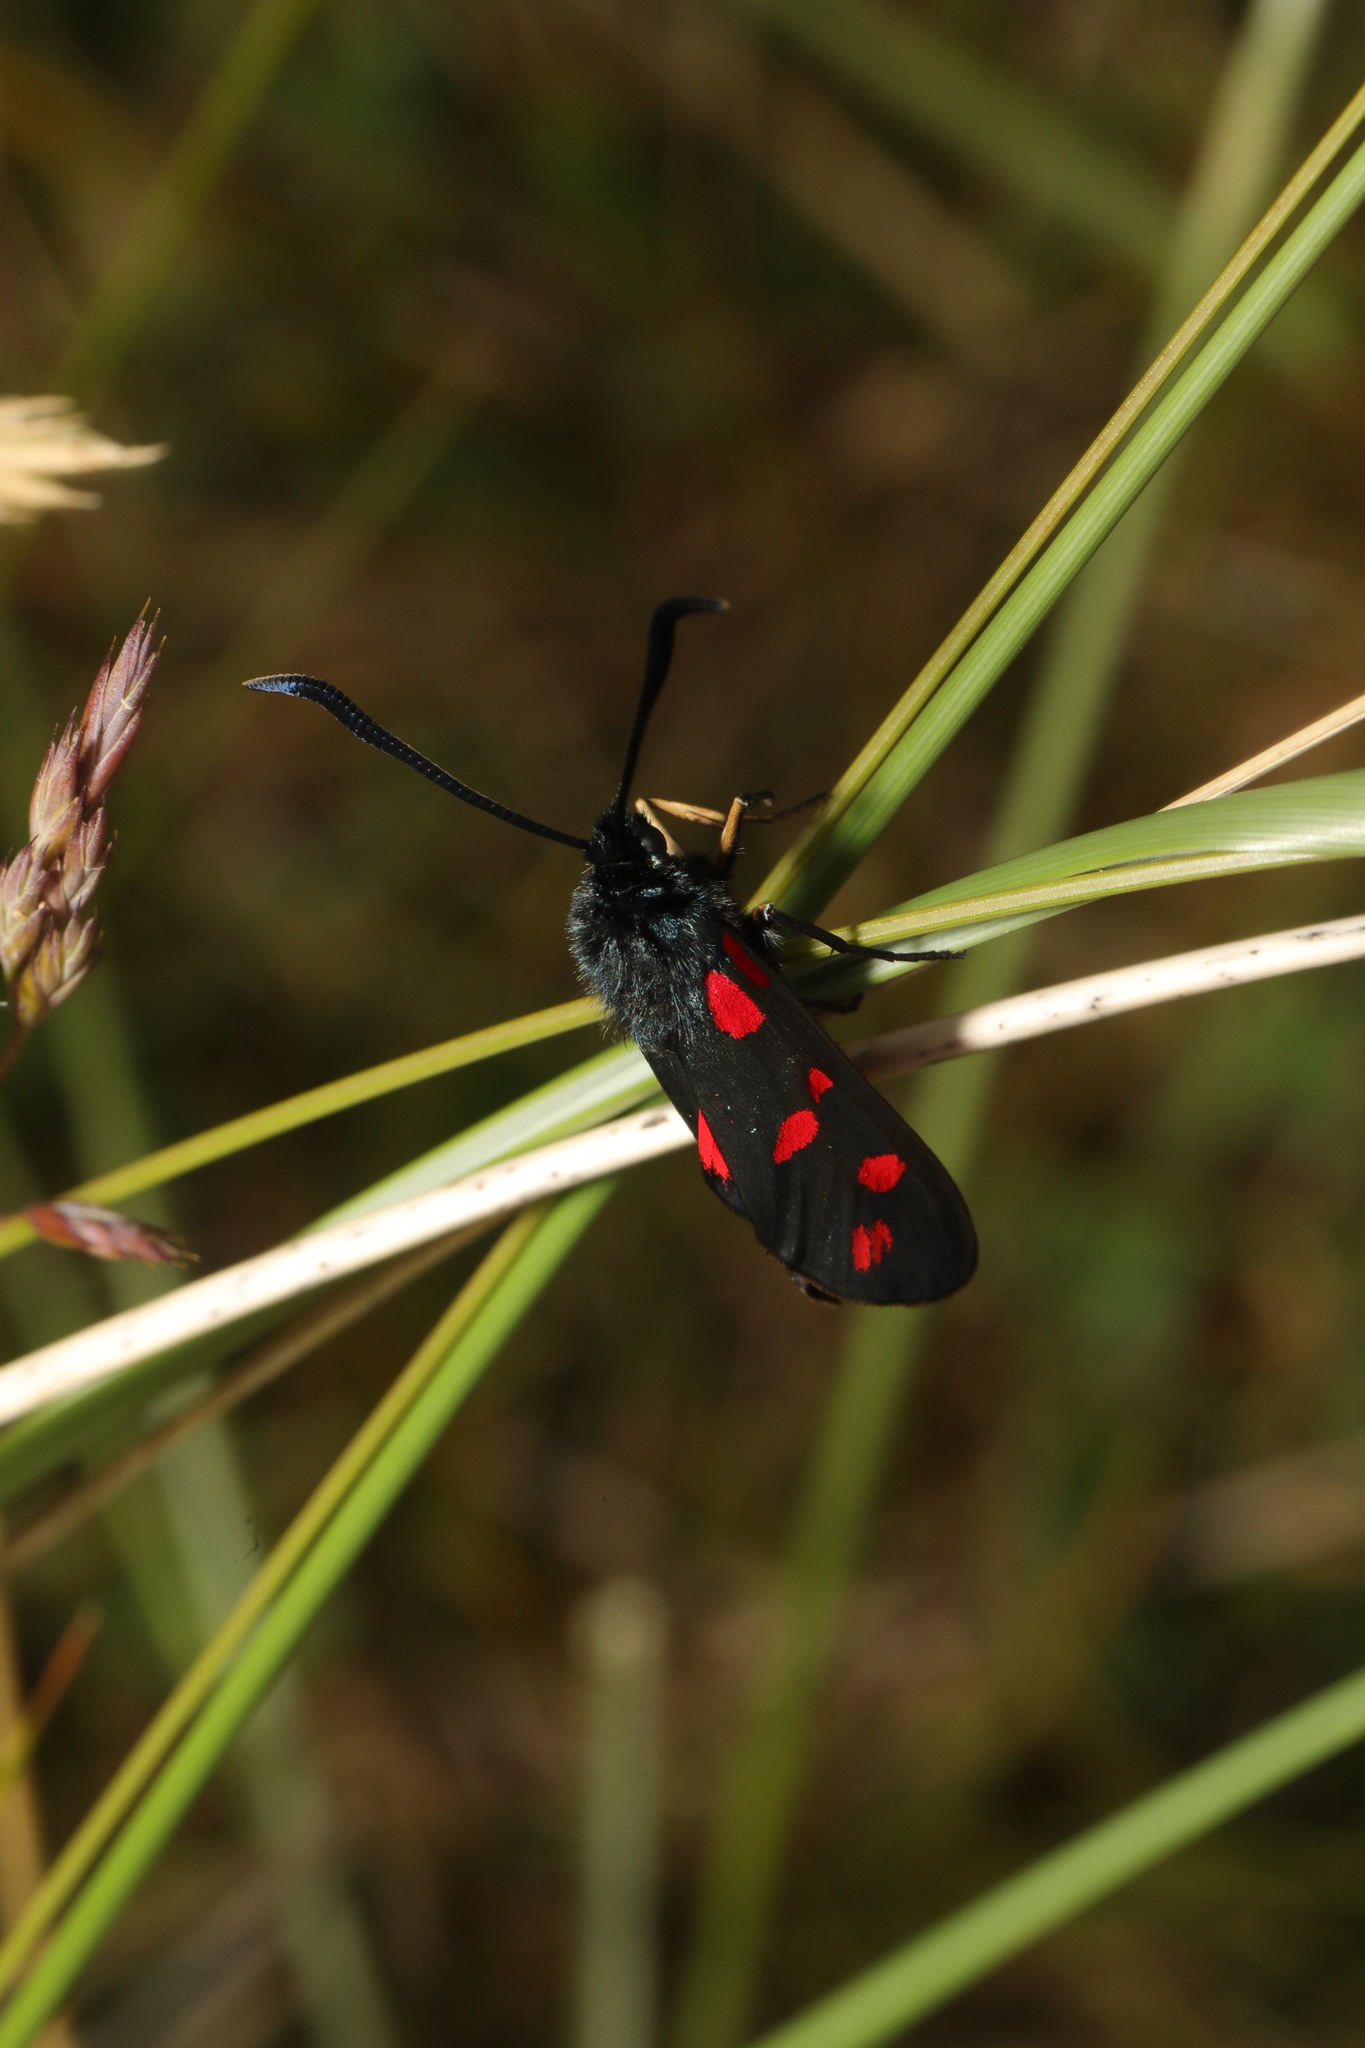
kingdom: Animalia
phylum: Arthropoda
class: Insecta
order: Lepidoptera
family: Zygaenidae
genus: Zygaena
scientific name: Zygaena filipendulae
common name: Six-spot burnet
